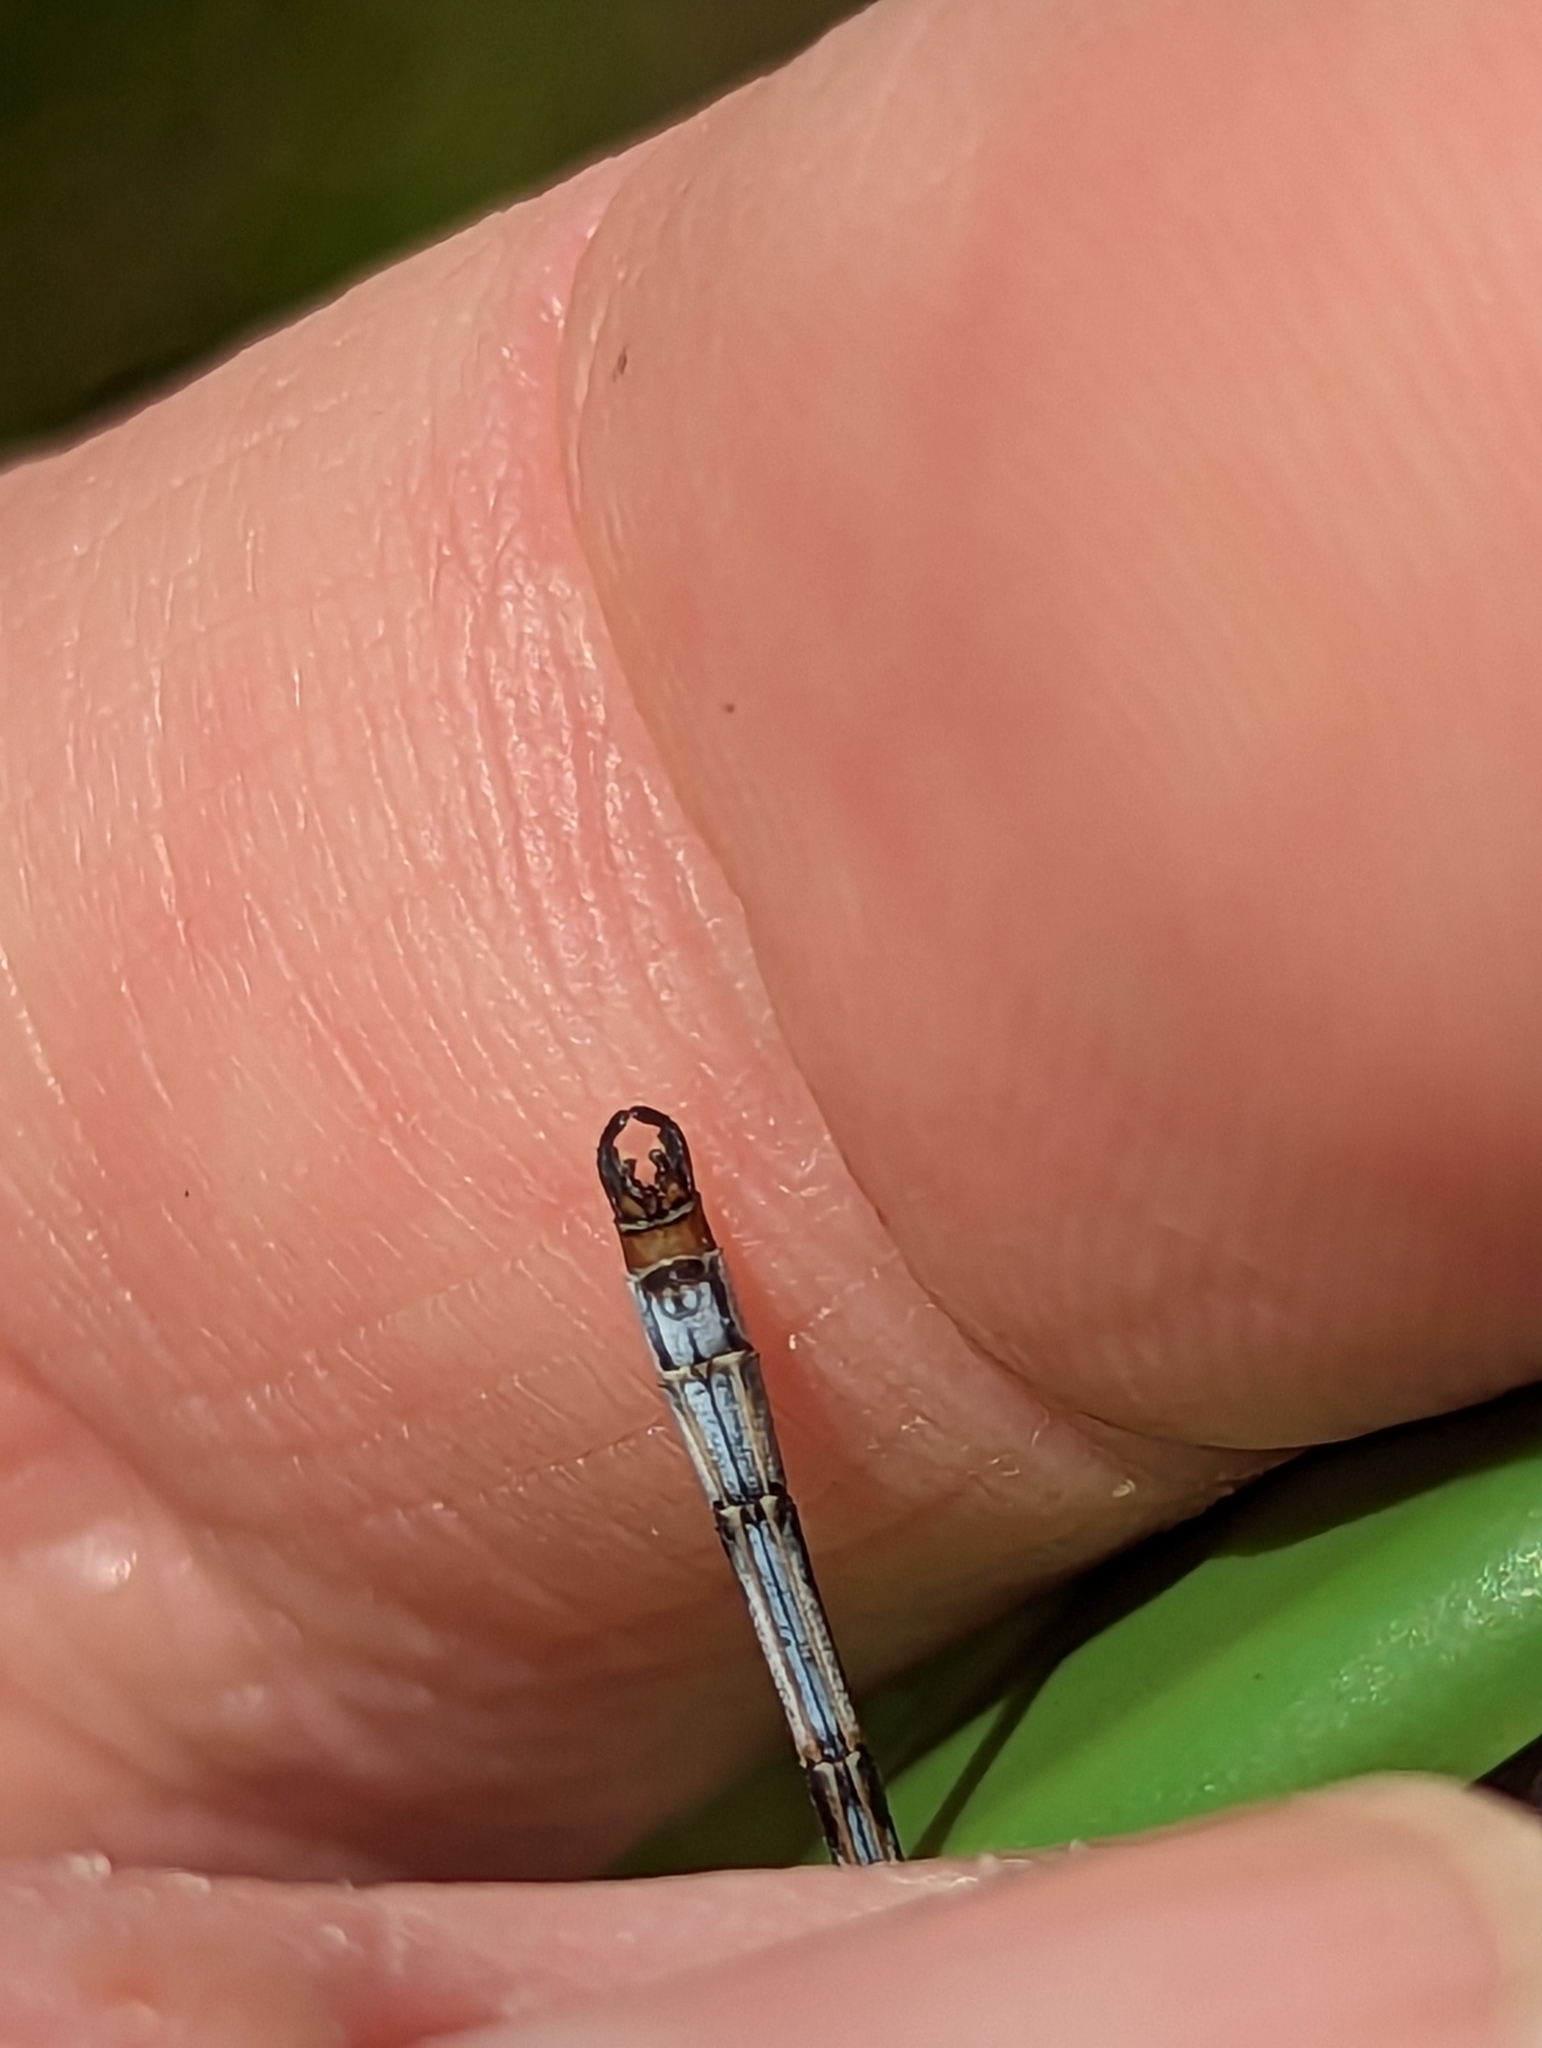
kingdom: Animalia
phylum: Arthropoda
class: Insecta
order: Odonata
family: Lestidae
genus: Lestes
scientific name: Lestes congener
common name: Spotted spreadwing
